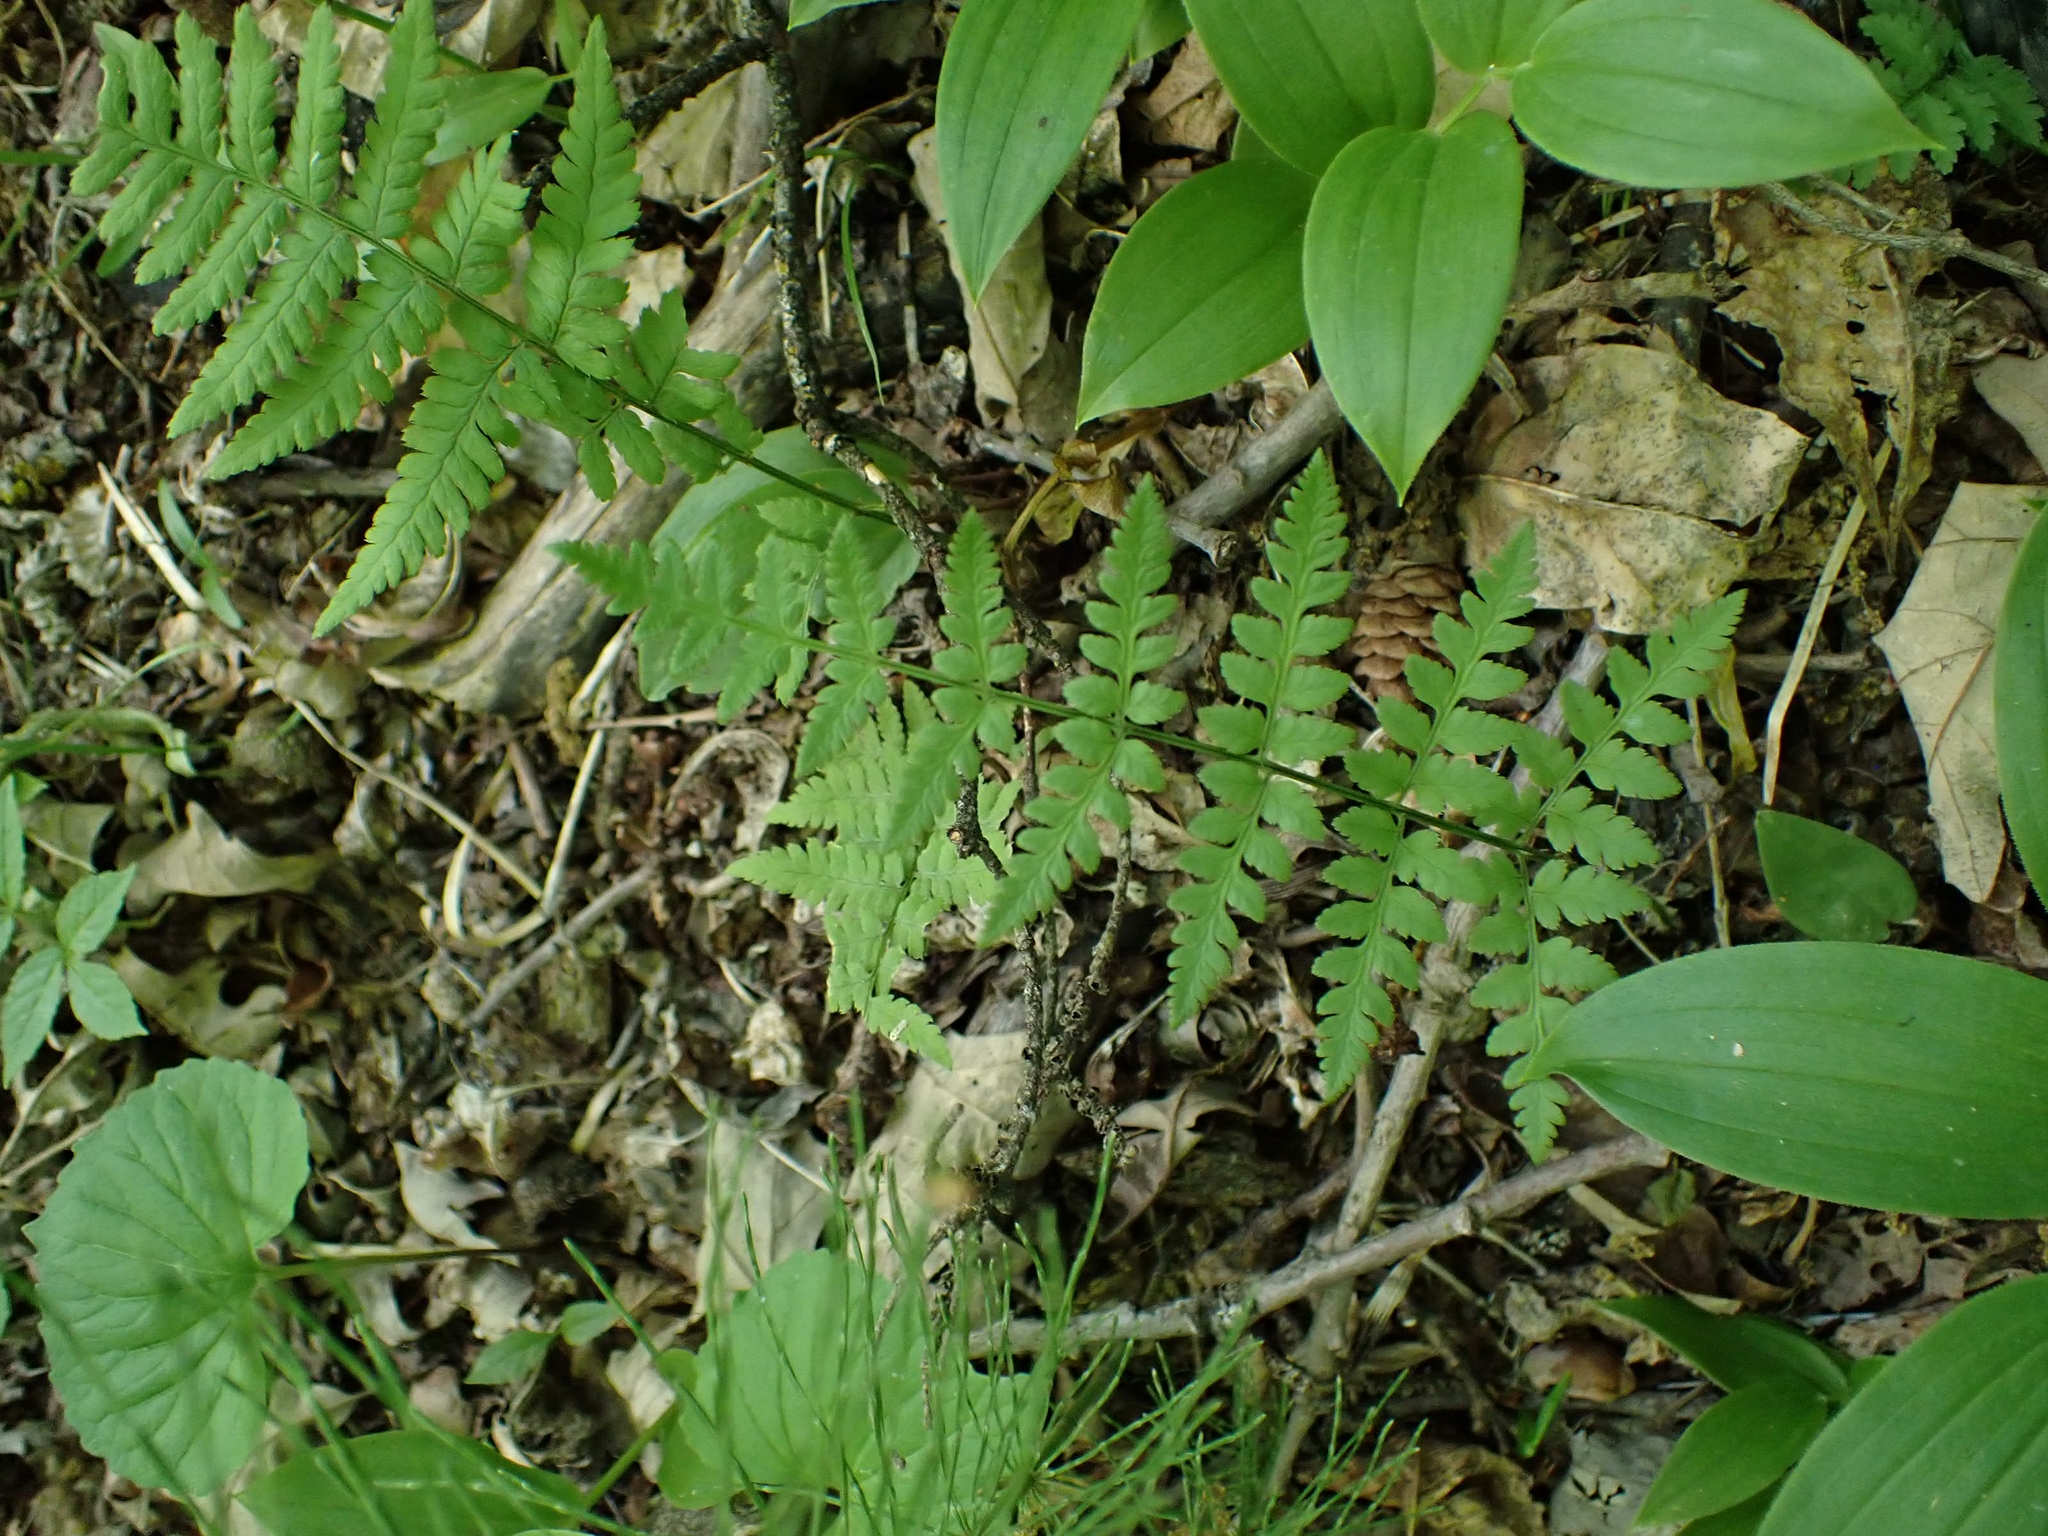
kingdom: Plantae
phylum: Tracheophyta
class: Polypodiopsida
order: Polypodiales
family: Dryopteridaceae
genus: Dryopteris
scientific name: Dryopteris carthusiana
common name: Narrow buckler-fern
